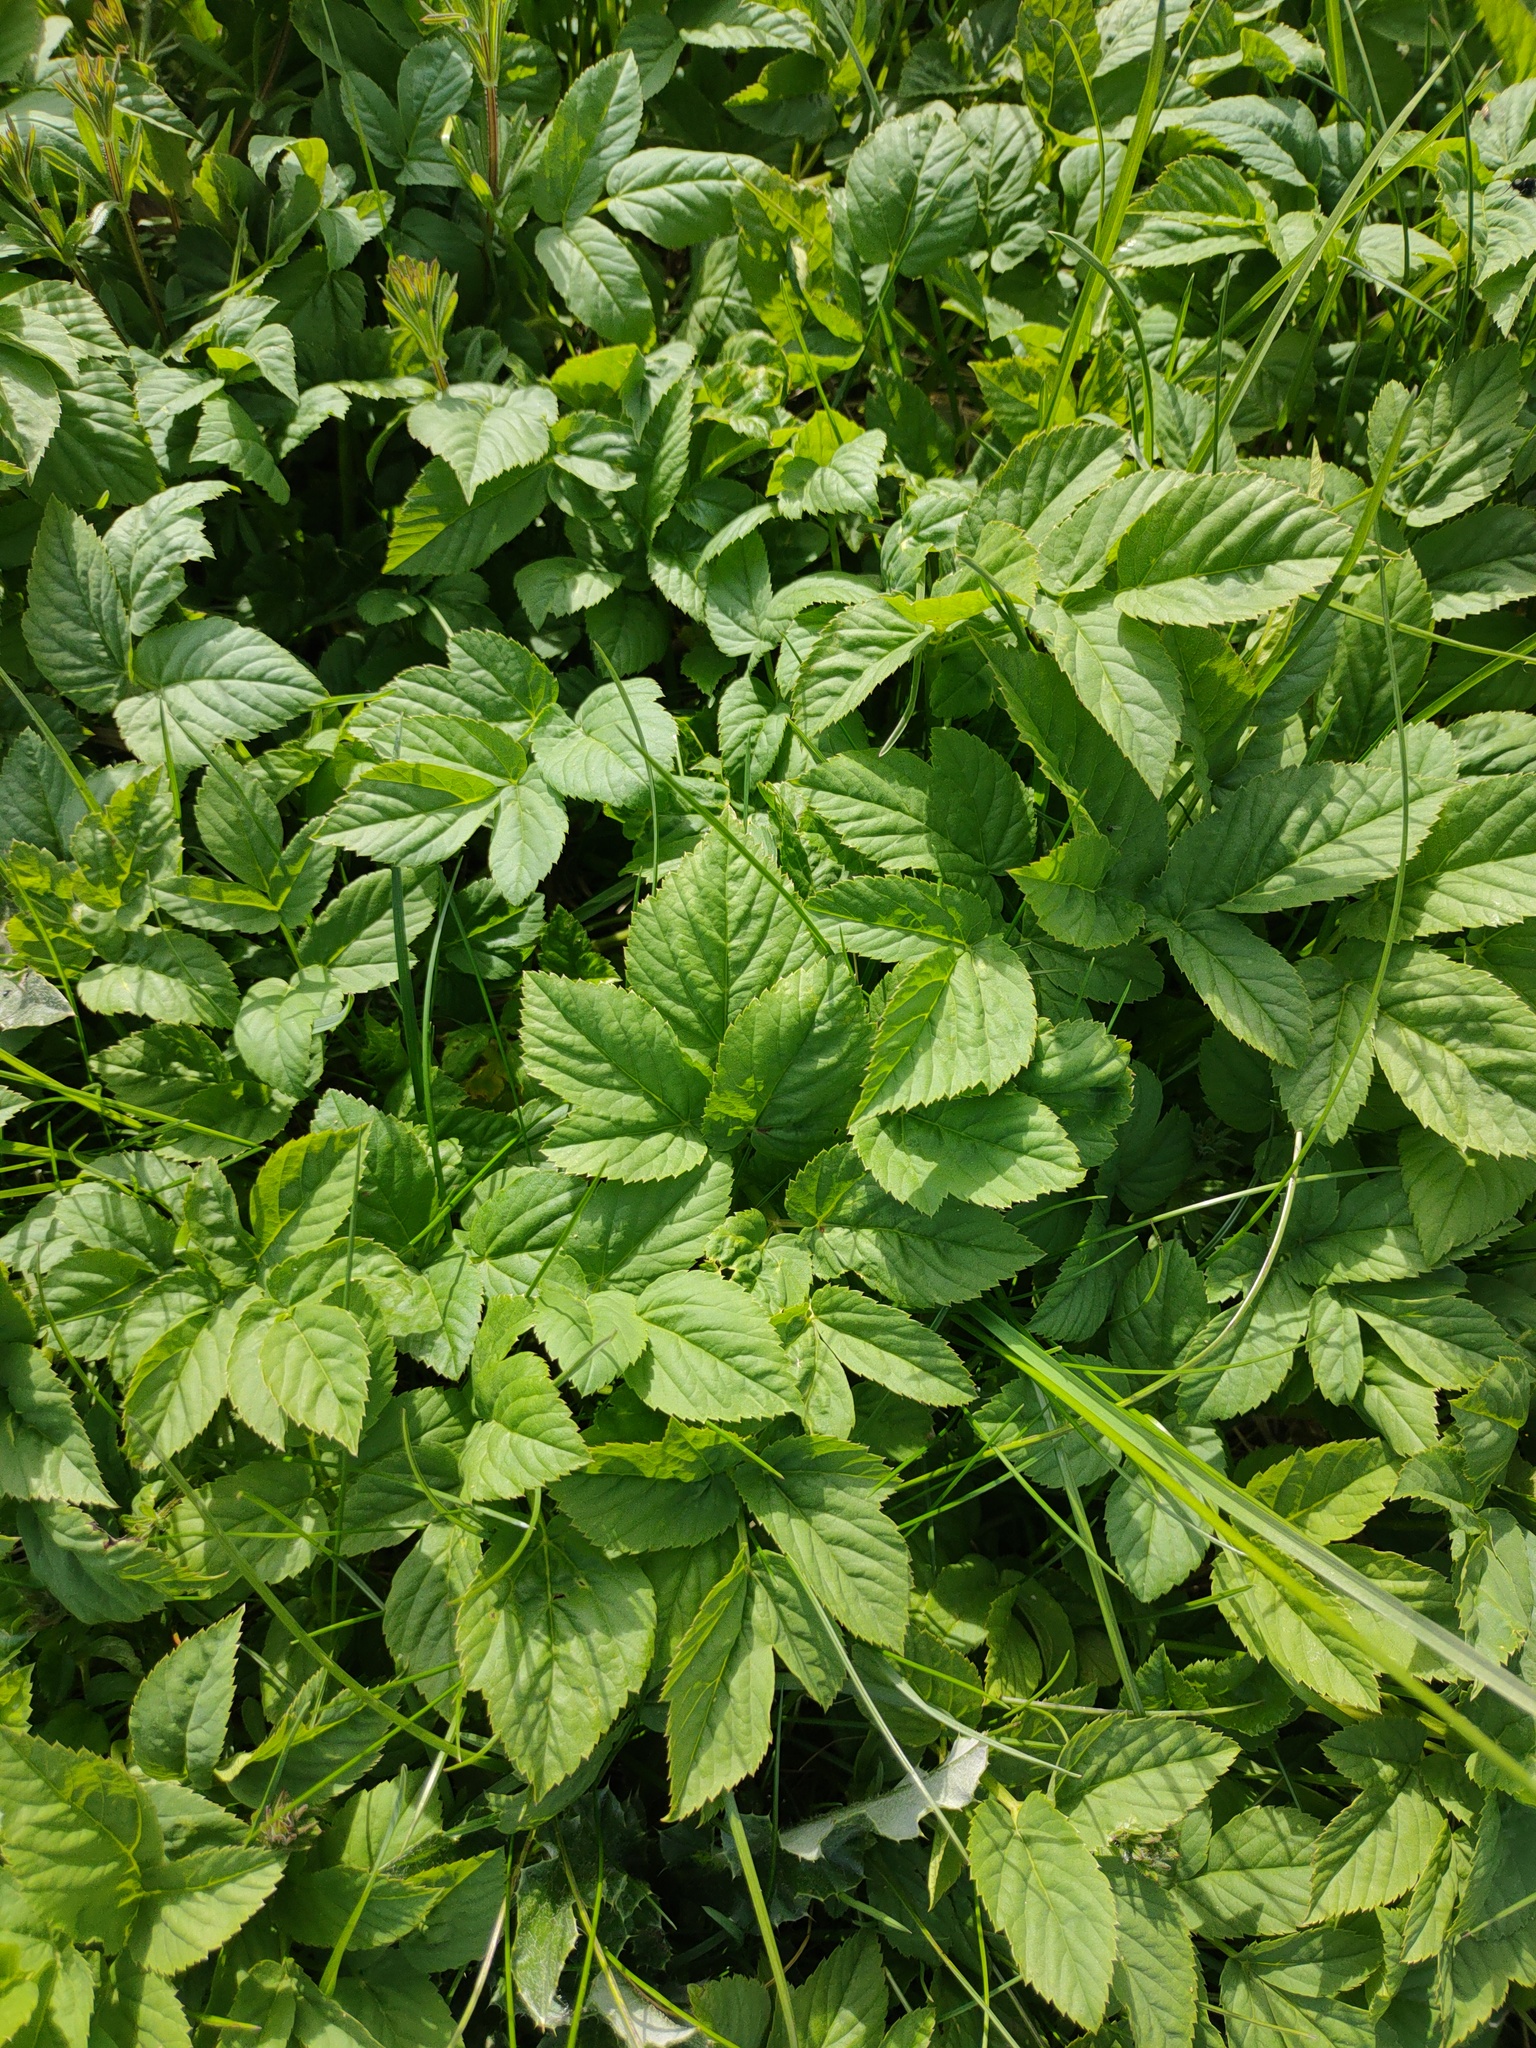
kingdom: Plantae
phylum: Tracheophyta
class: Magnoliopsida
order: Apiales
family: Apiaceae
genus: Aegopodium
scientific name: Aegopodium podagraria
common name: Ground-elder
